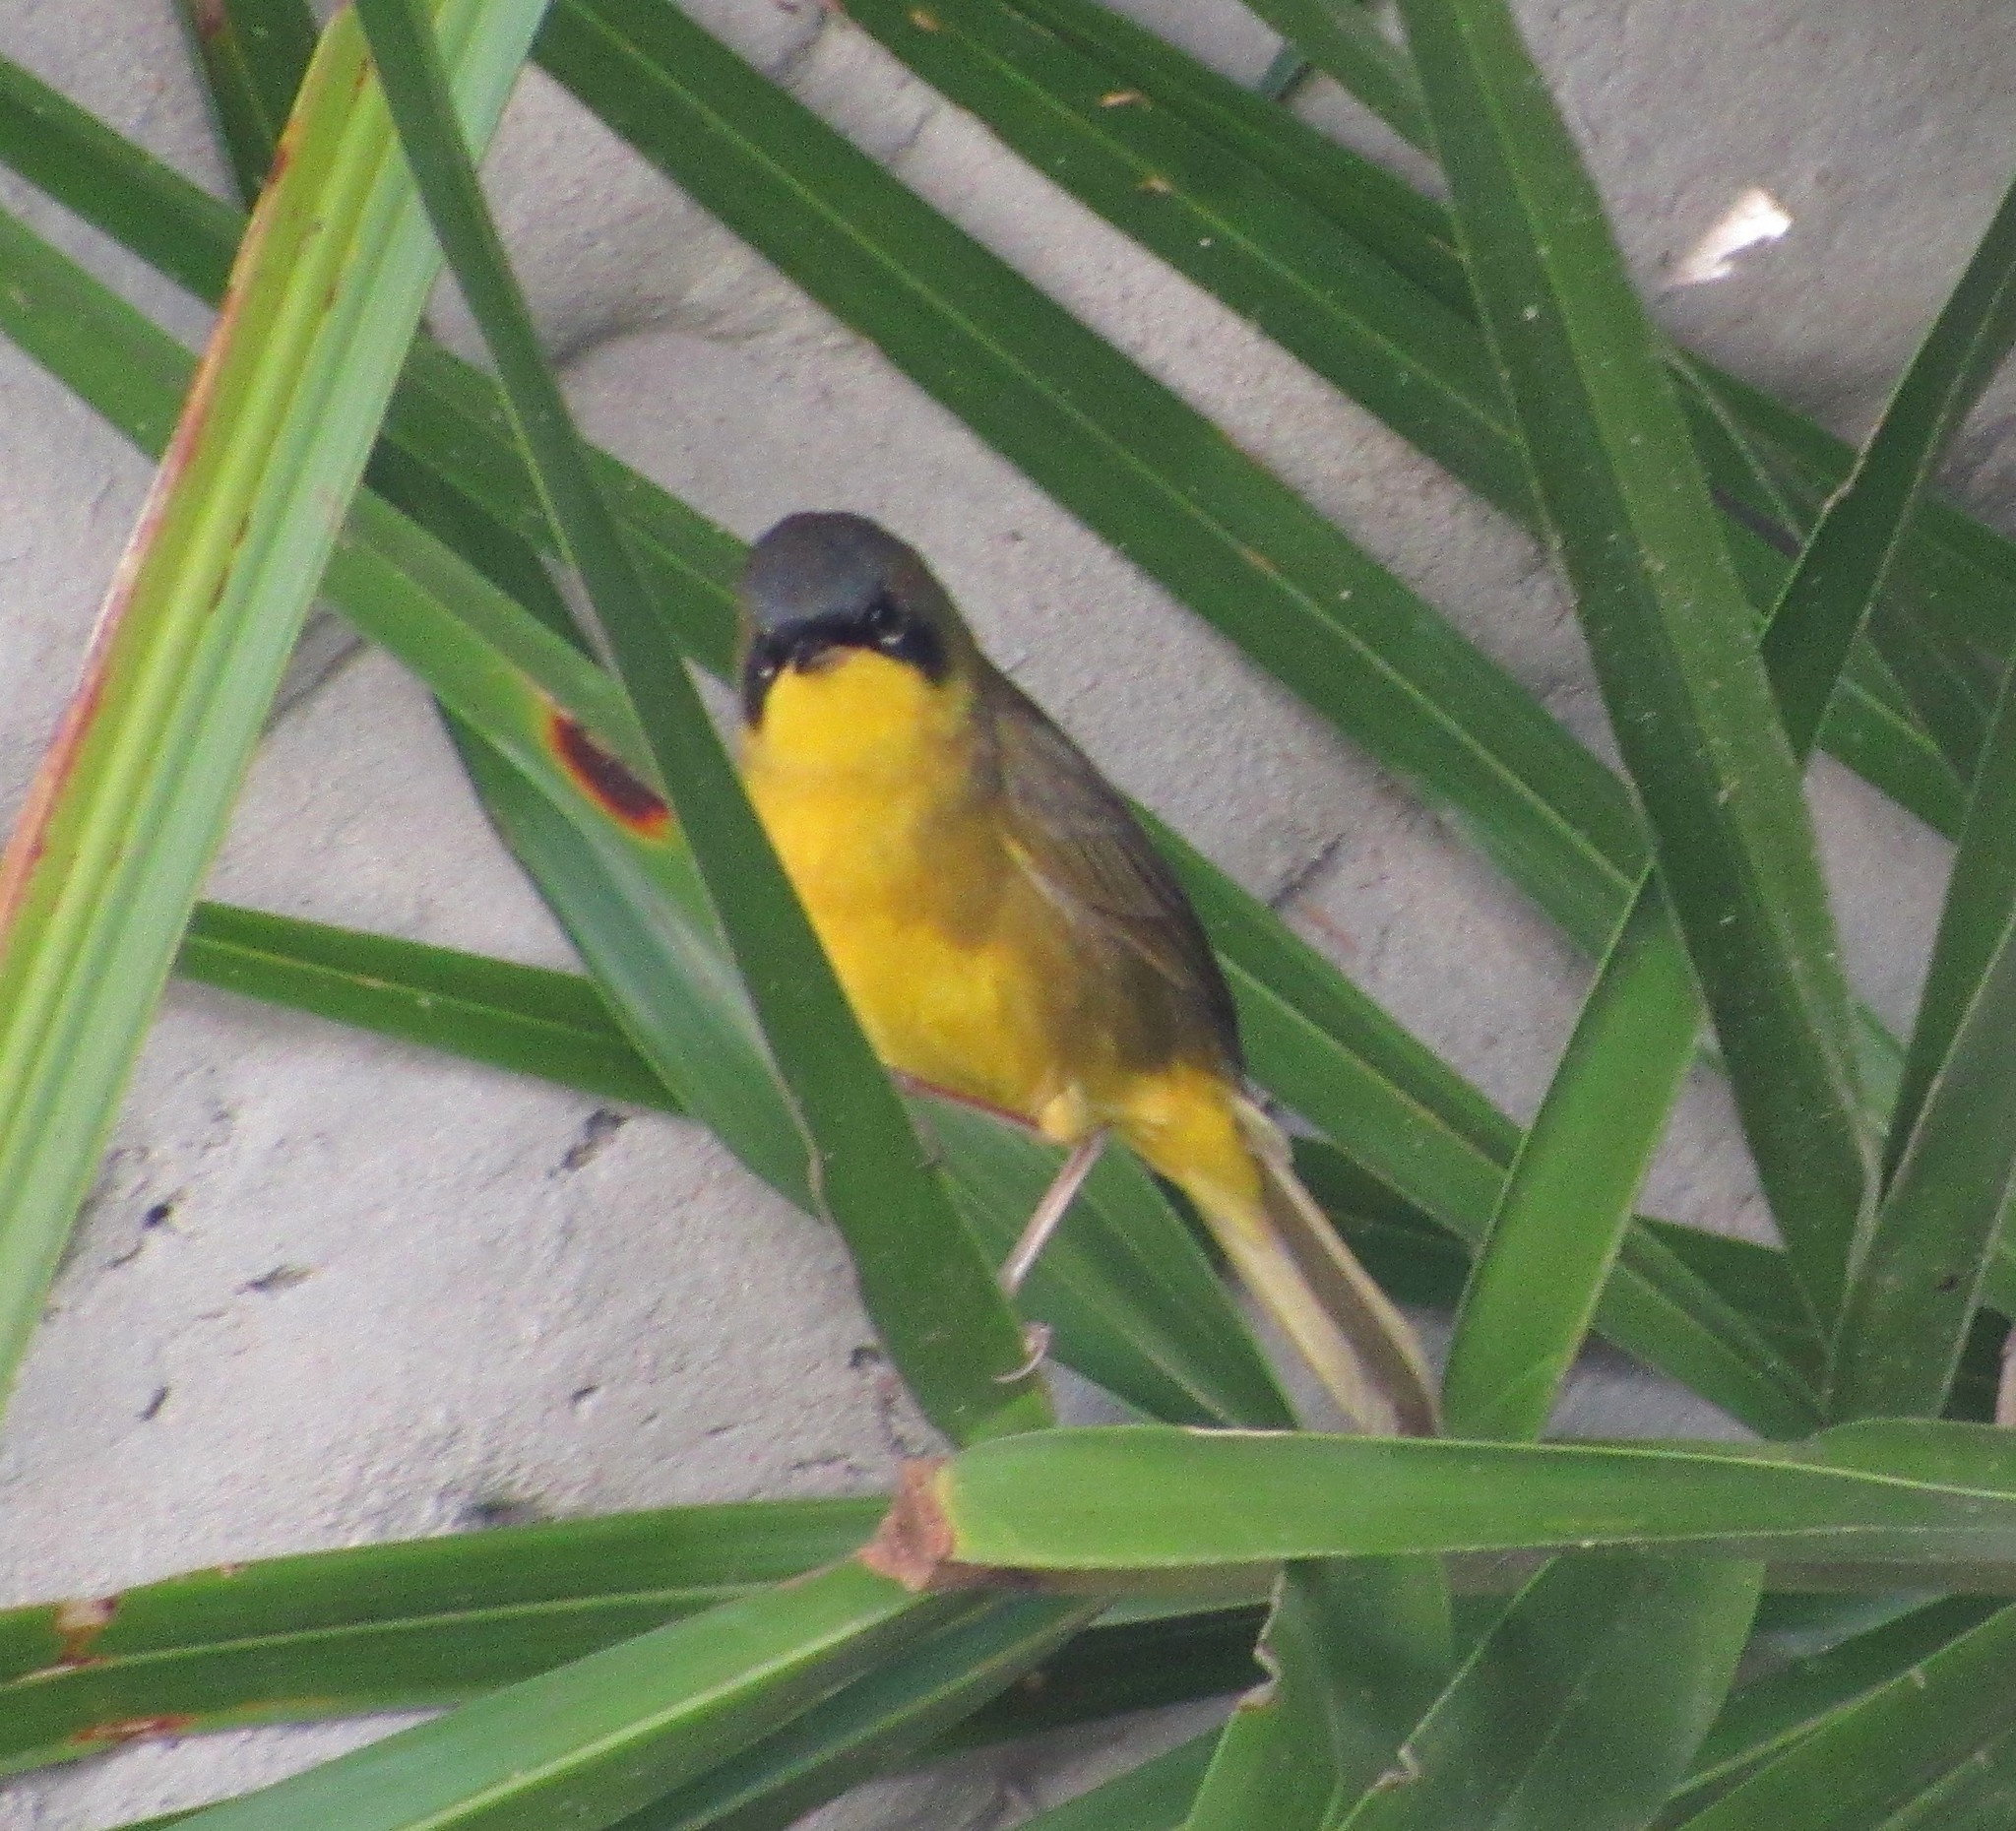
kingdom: Animalia
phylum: Chordata
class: Aves
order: Passeriformes
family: Parulidae
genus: Geothlypis
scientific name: Geothlypis velata
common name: Southern yellowthroat
